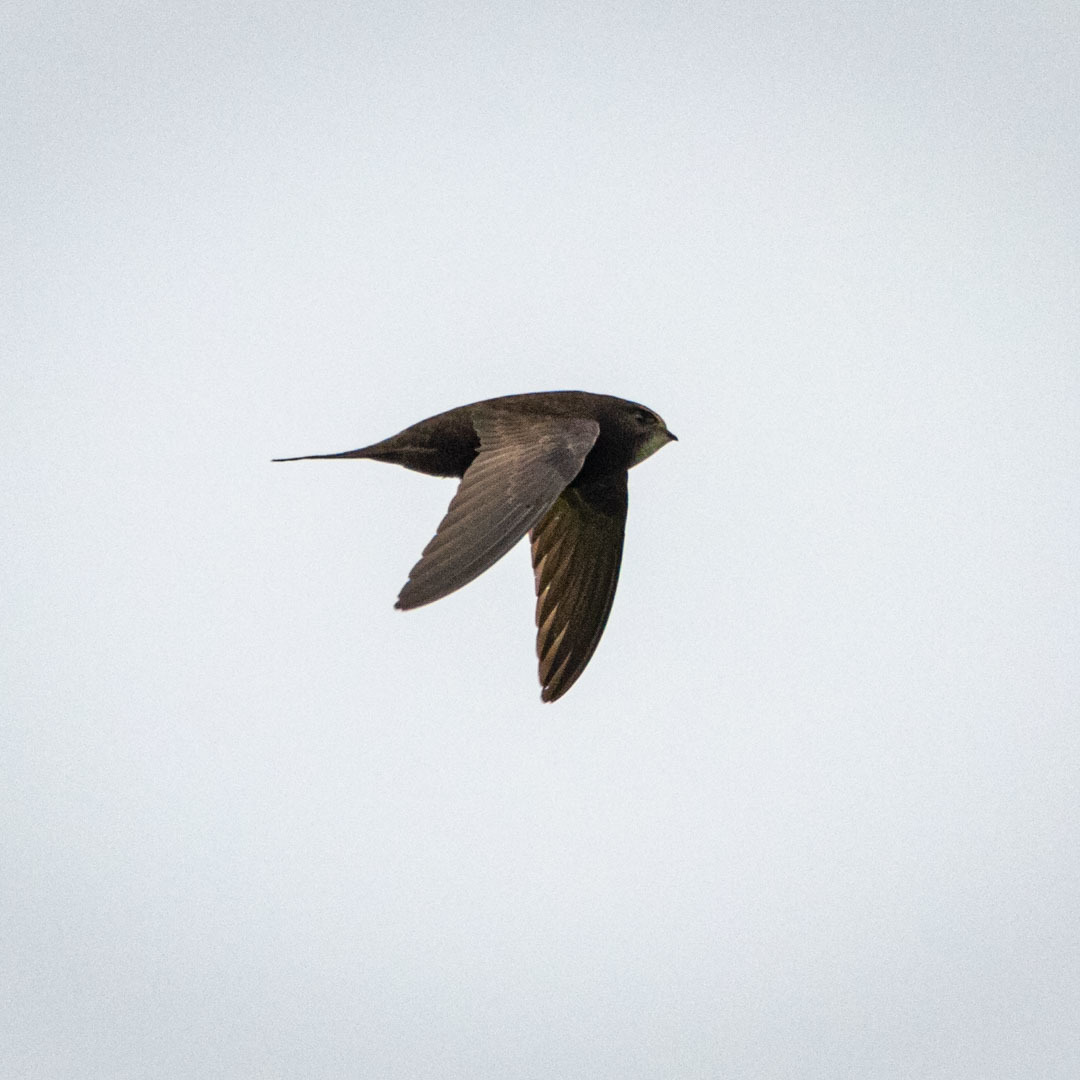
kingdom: Animalia
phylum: Chordata
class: Aves
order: Apodiformes
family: Apodidae
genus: Apus
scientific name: Apus apus
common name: Common swift
